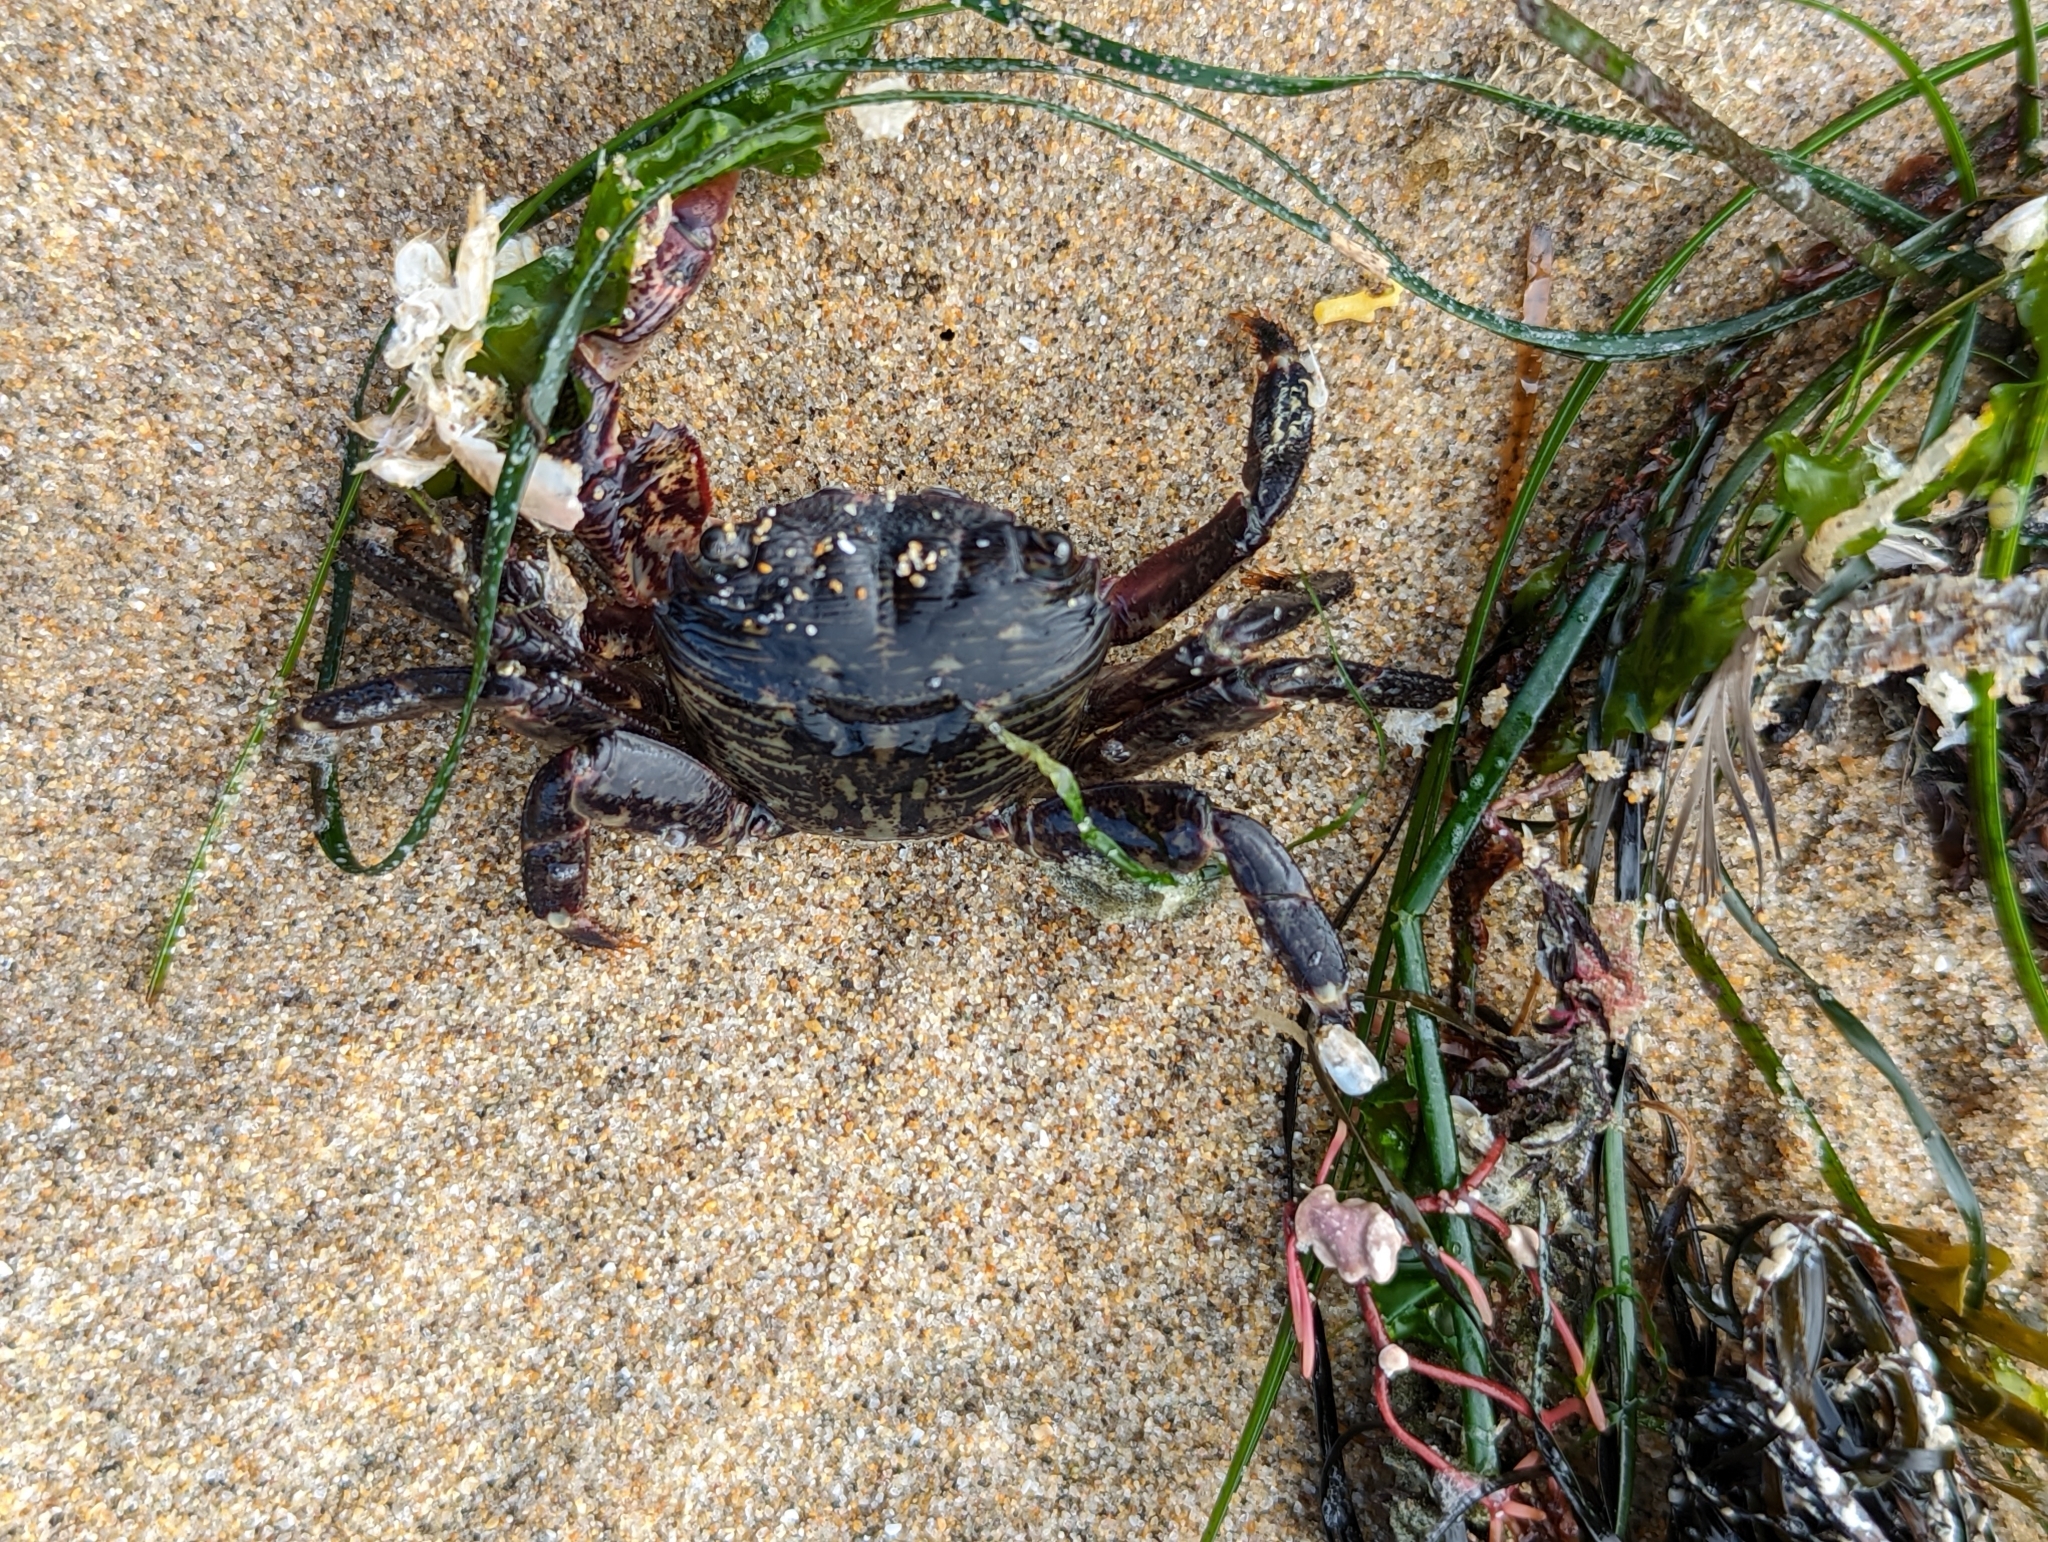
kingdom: Animalia
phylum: Arthropoda
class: Malacostraca
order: Decapoda
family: Grapsidae
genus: Pachygrapsus
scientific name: Pachygrapsus crassipes
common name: Striped shore crab
